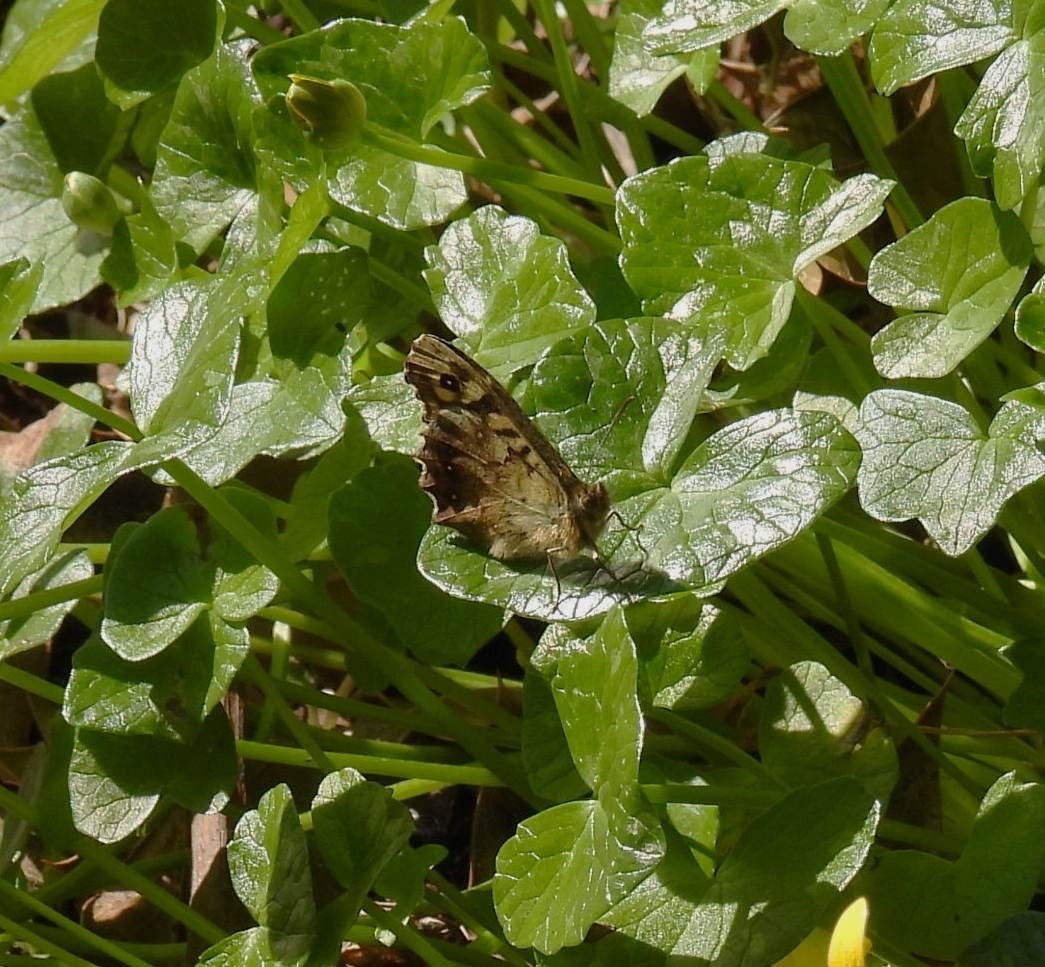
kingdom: Animalia
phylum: Arthropoda
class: Insecta
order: Lepidoptera
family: Nymphalidae
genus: Pararge
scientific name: Pararge aegeria
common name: Speckled wood
